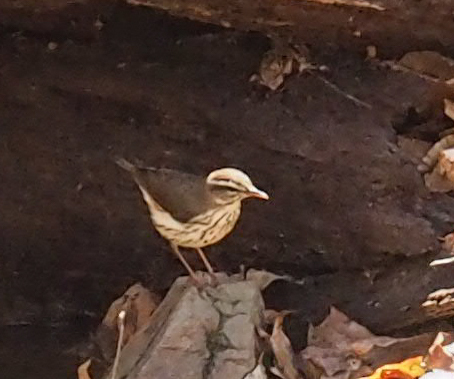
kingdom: Animalia
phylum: Chordata
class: Aves
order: Passeriformes
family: Parulidae
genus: Parkesia
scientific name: Parkesia motacilla
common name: Louisiana waterthrush
